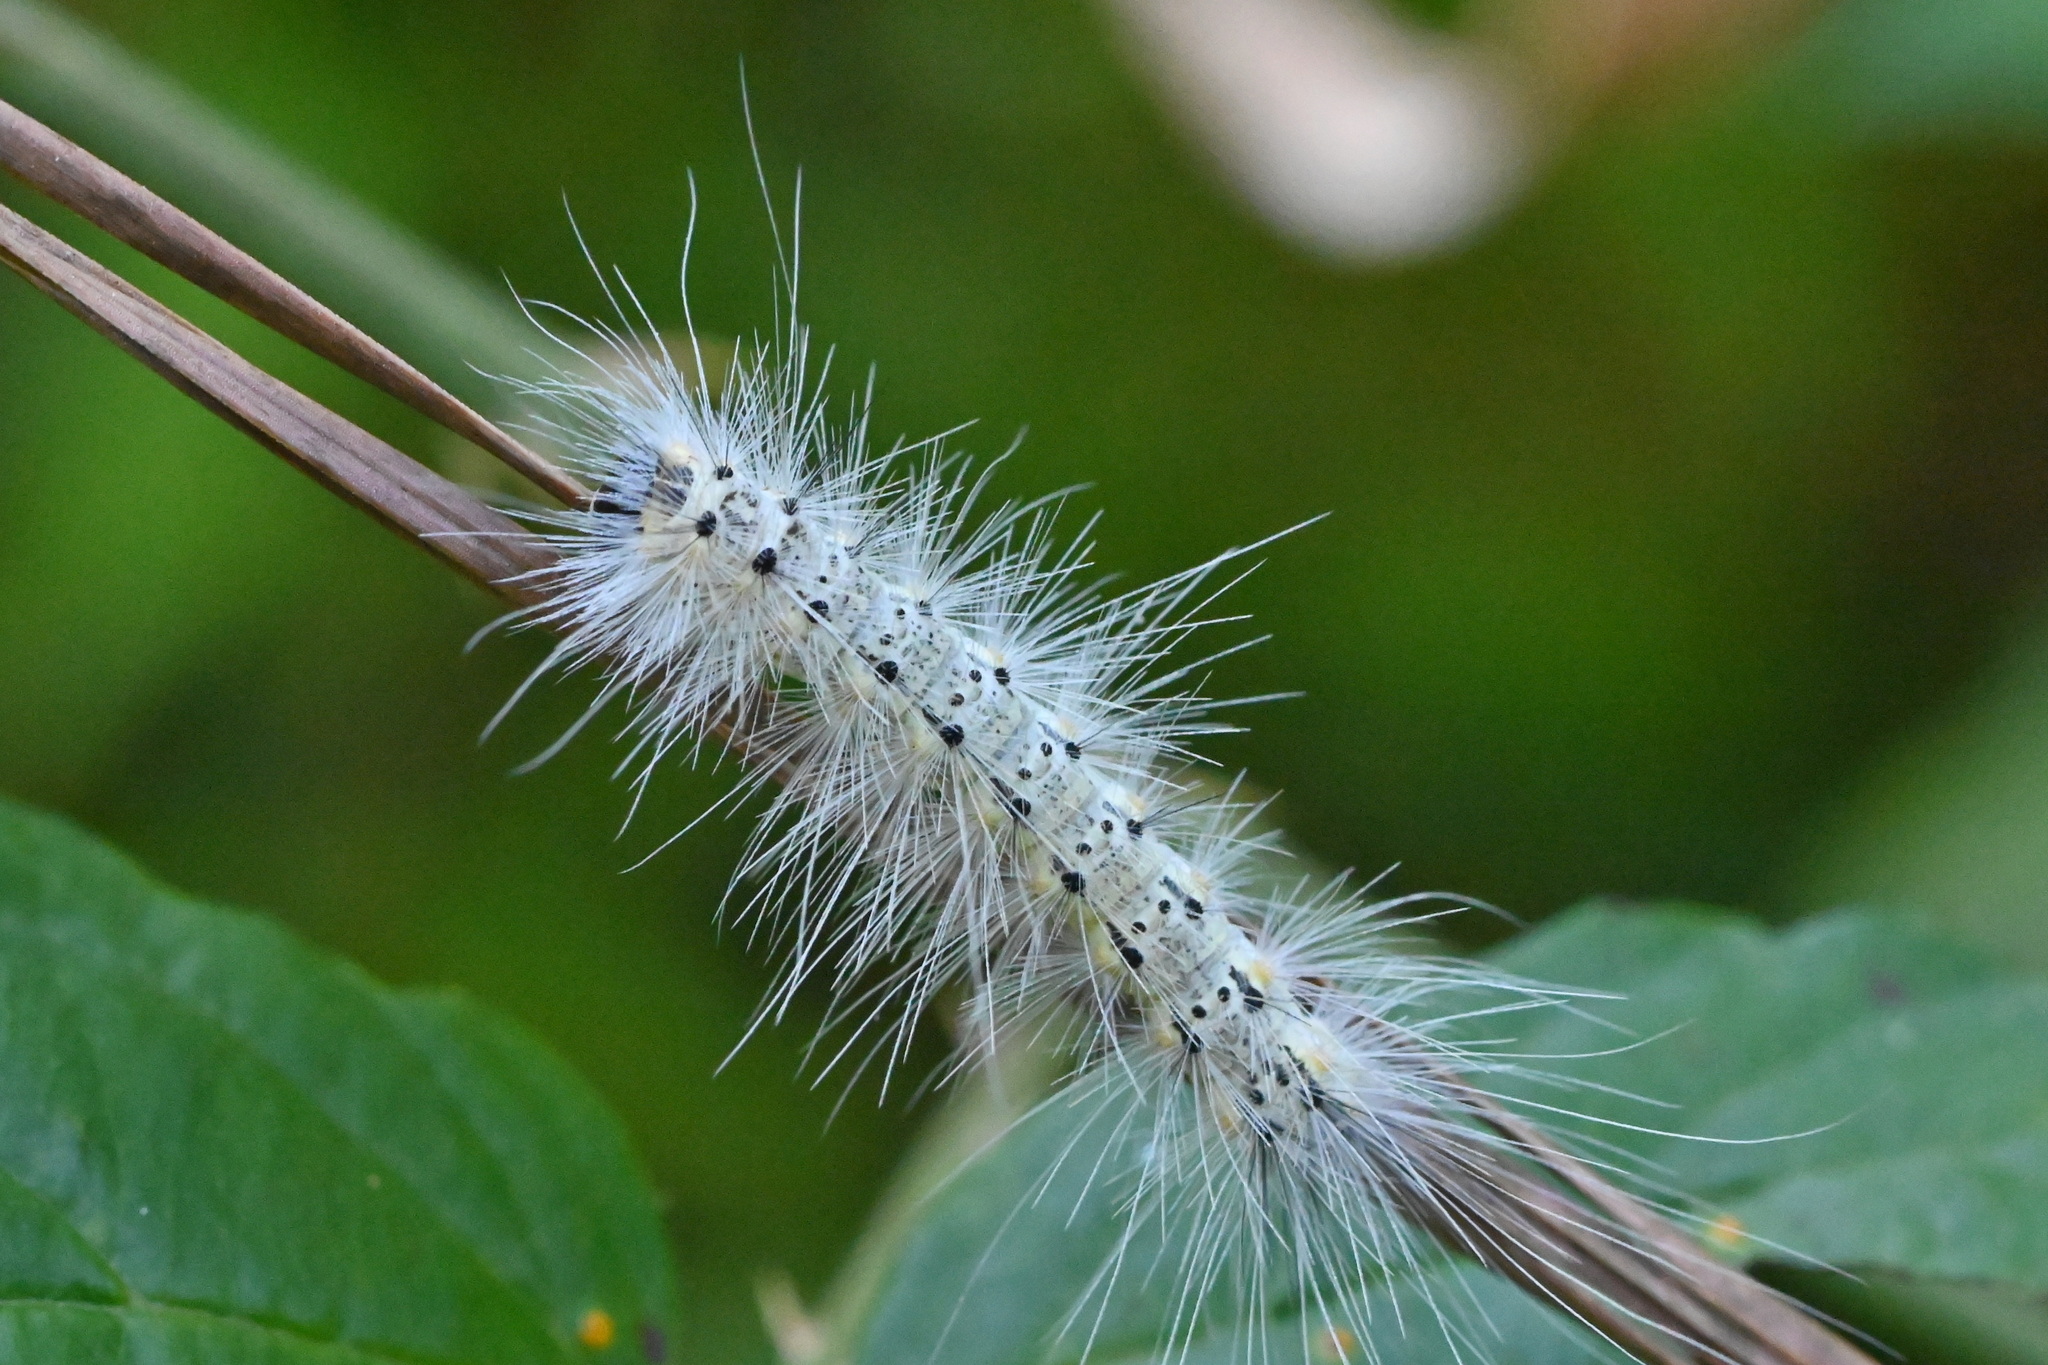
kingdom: Animalia
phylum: Arthropoda
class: Insecta
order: Lepidoptera
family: Erebidae
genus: Hyphantria
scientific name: Hyphantria cunea
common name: American white moth
